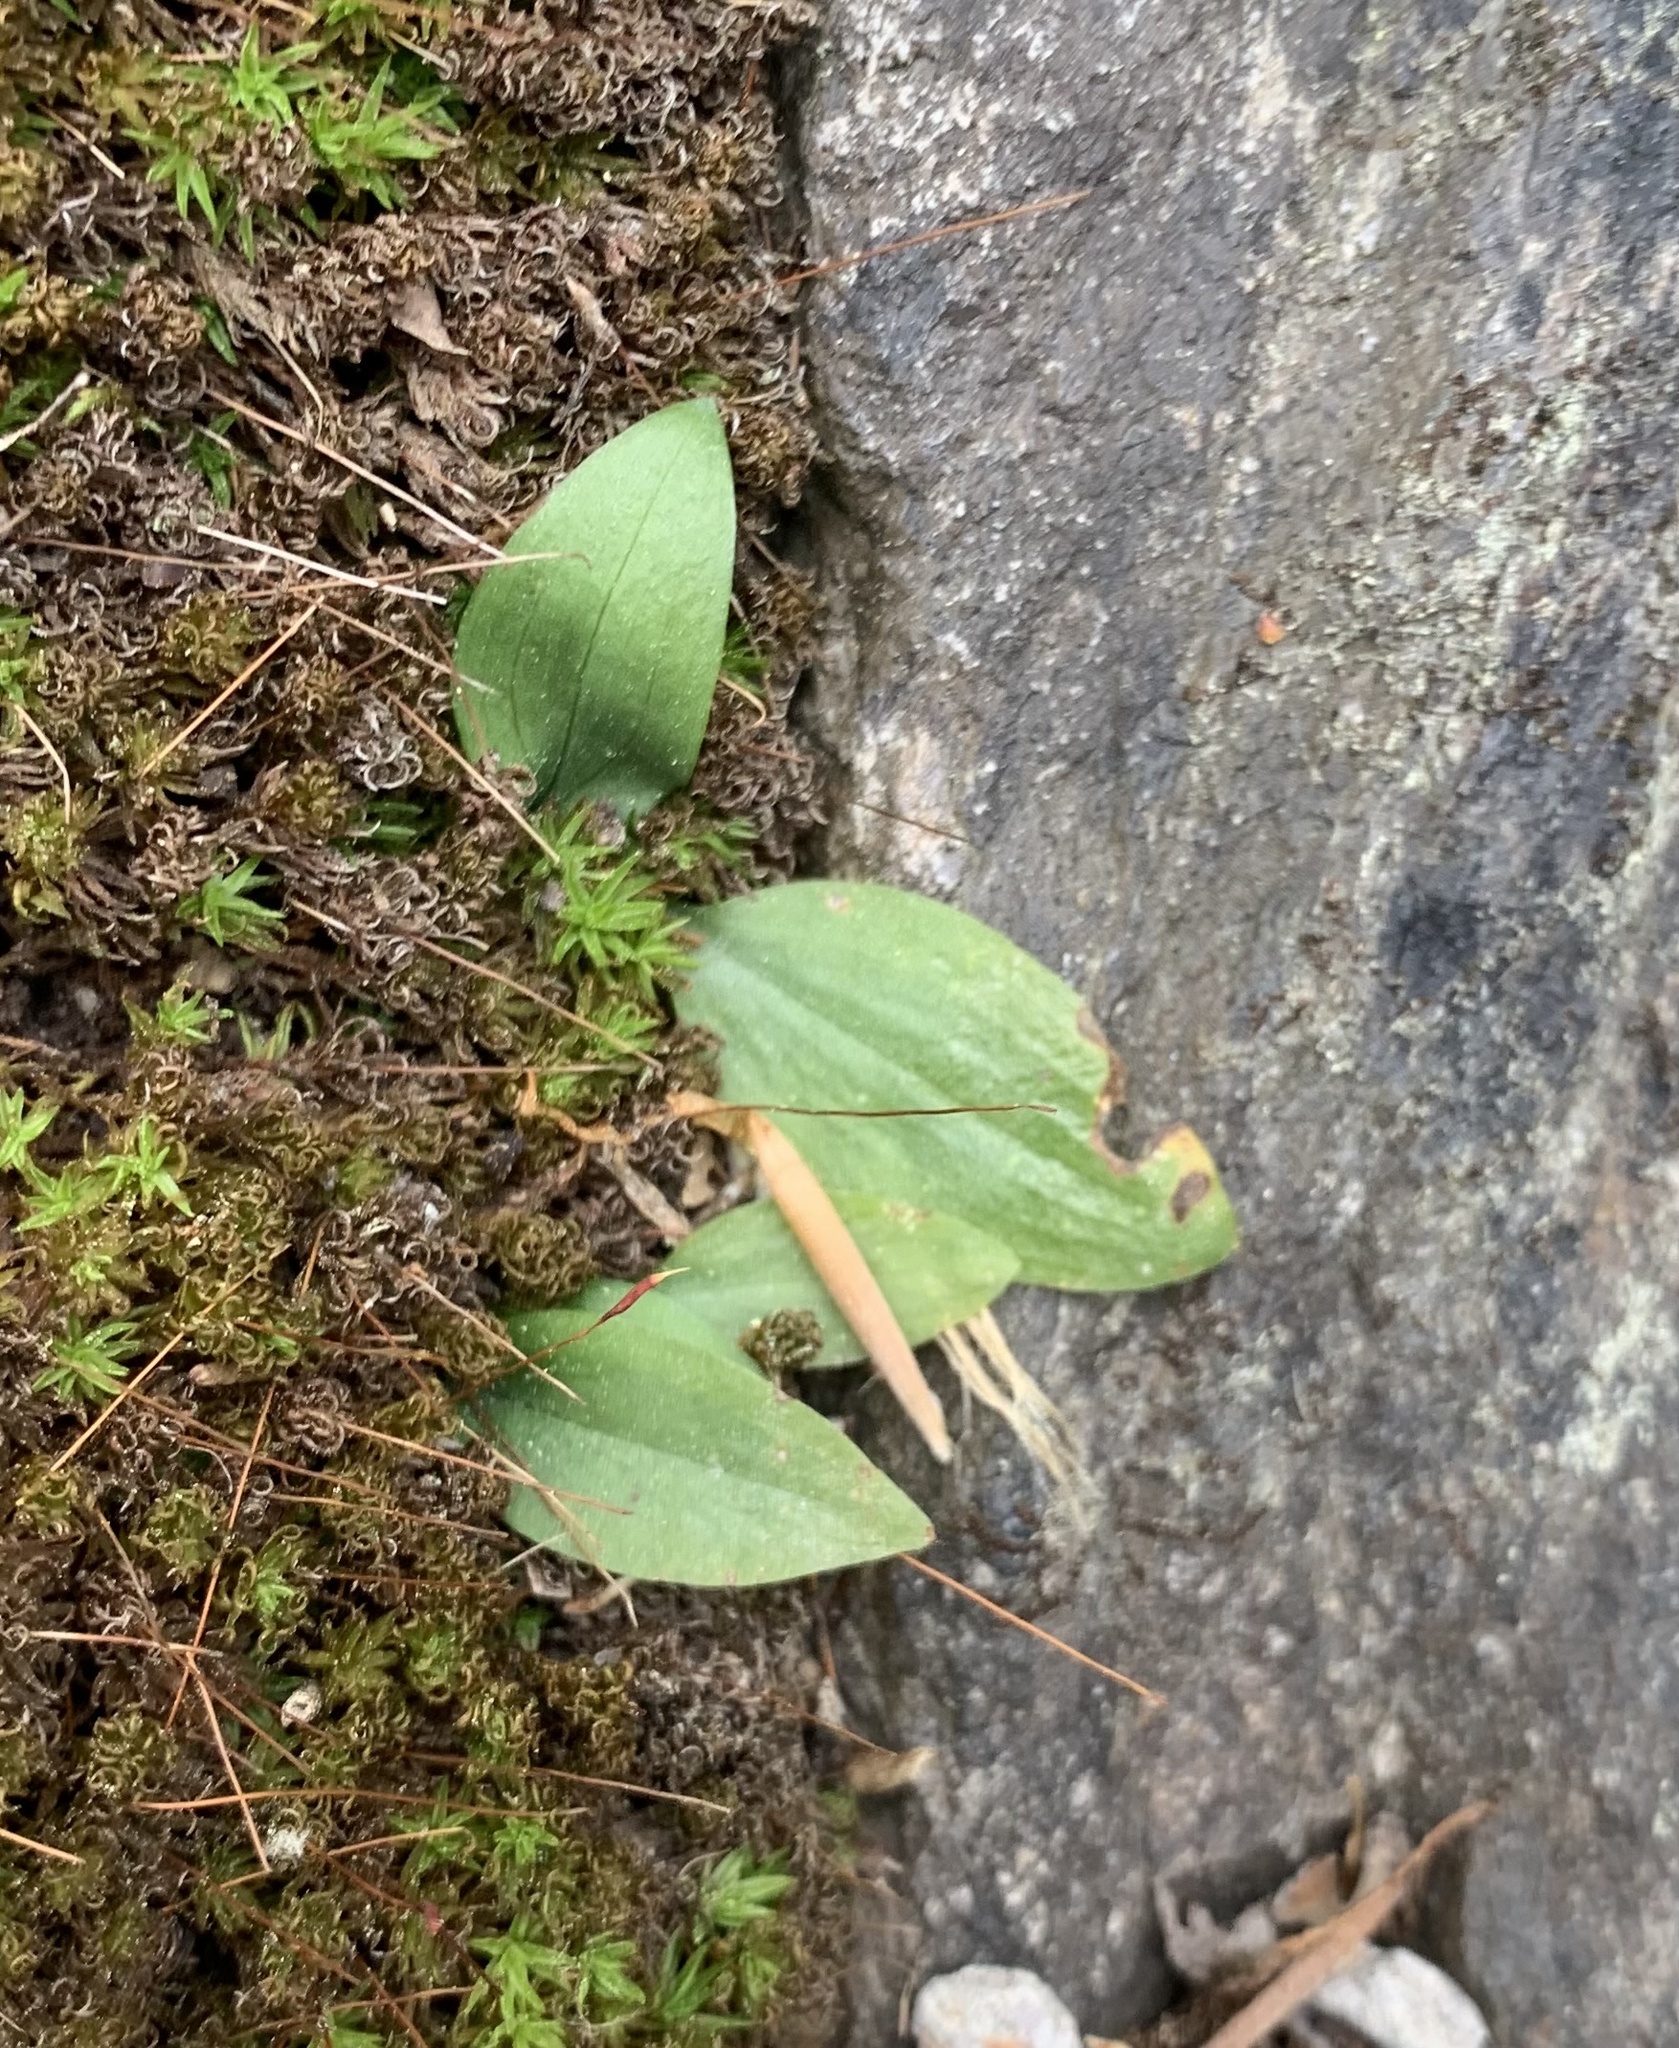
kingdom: Plantae
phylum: Tracheophyta
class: Liliopsida
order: Asparagales
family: Orchidaceae
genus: Spiranthes
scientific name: Spiranthes tuberosa
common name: Little ladies'-tresses
